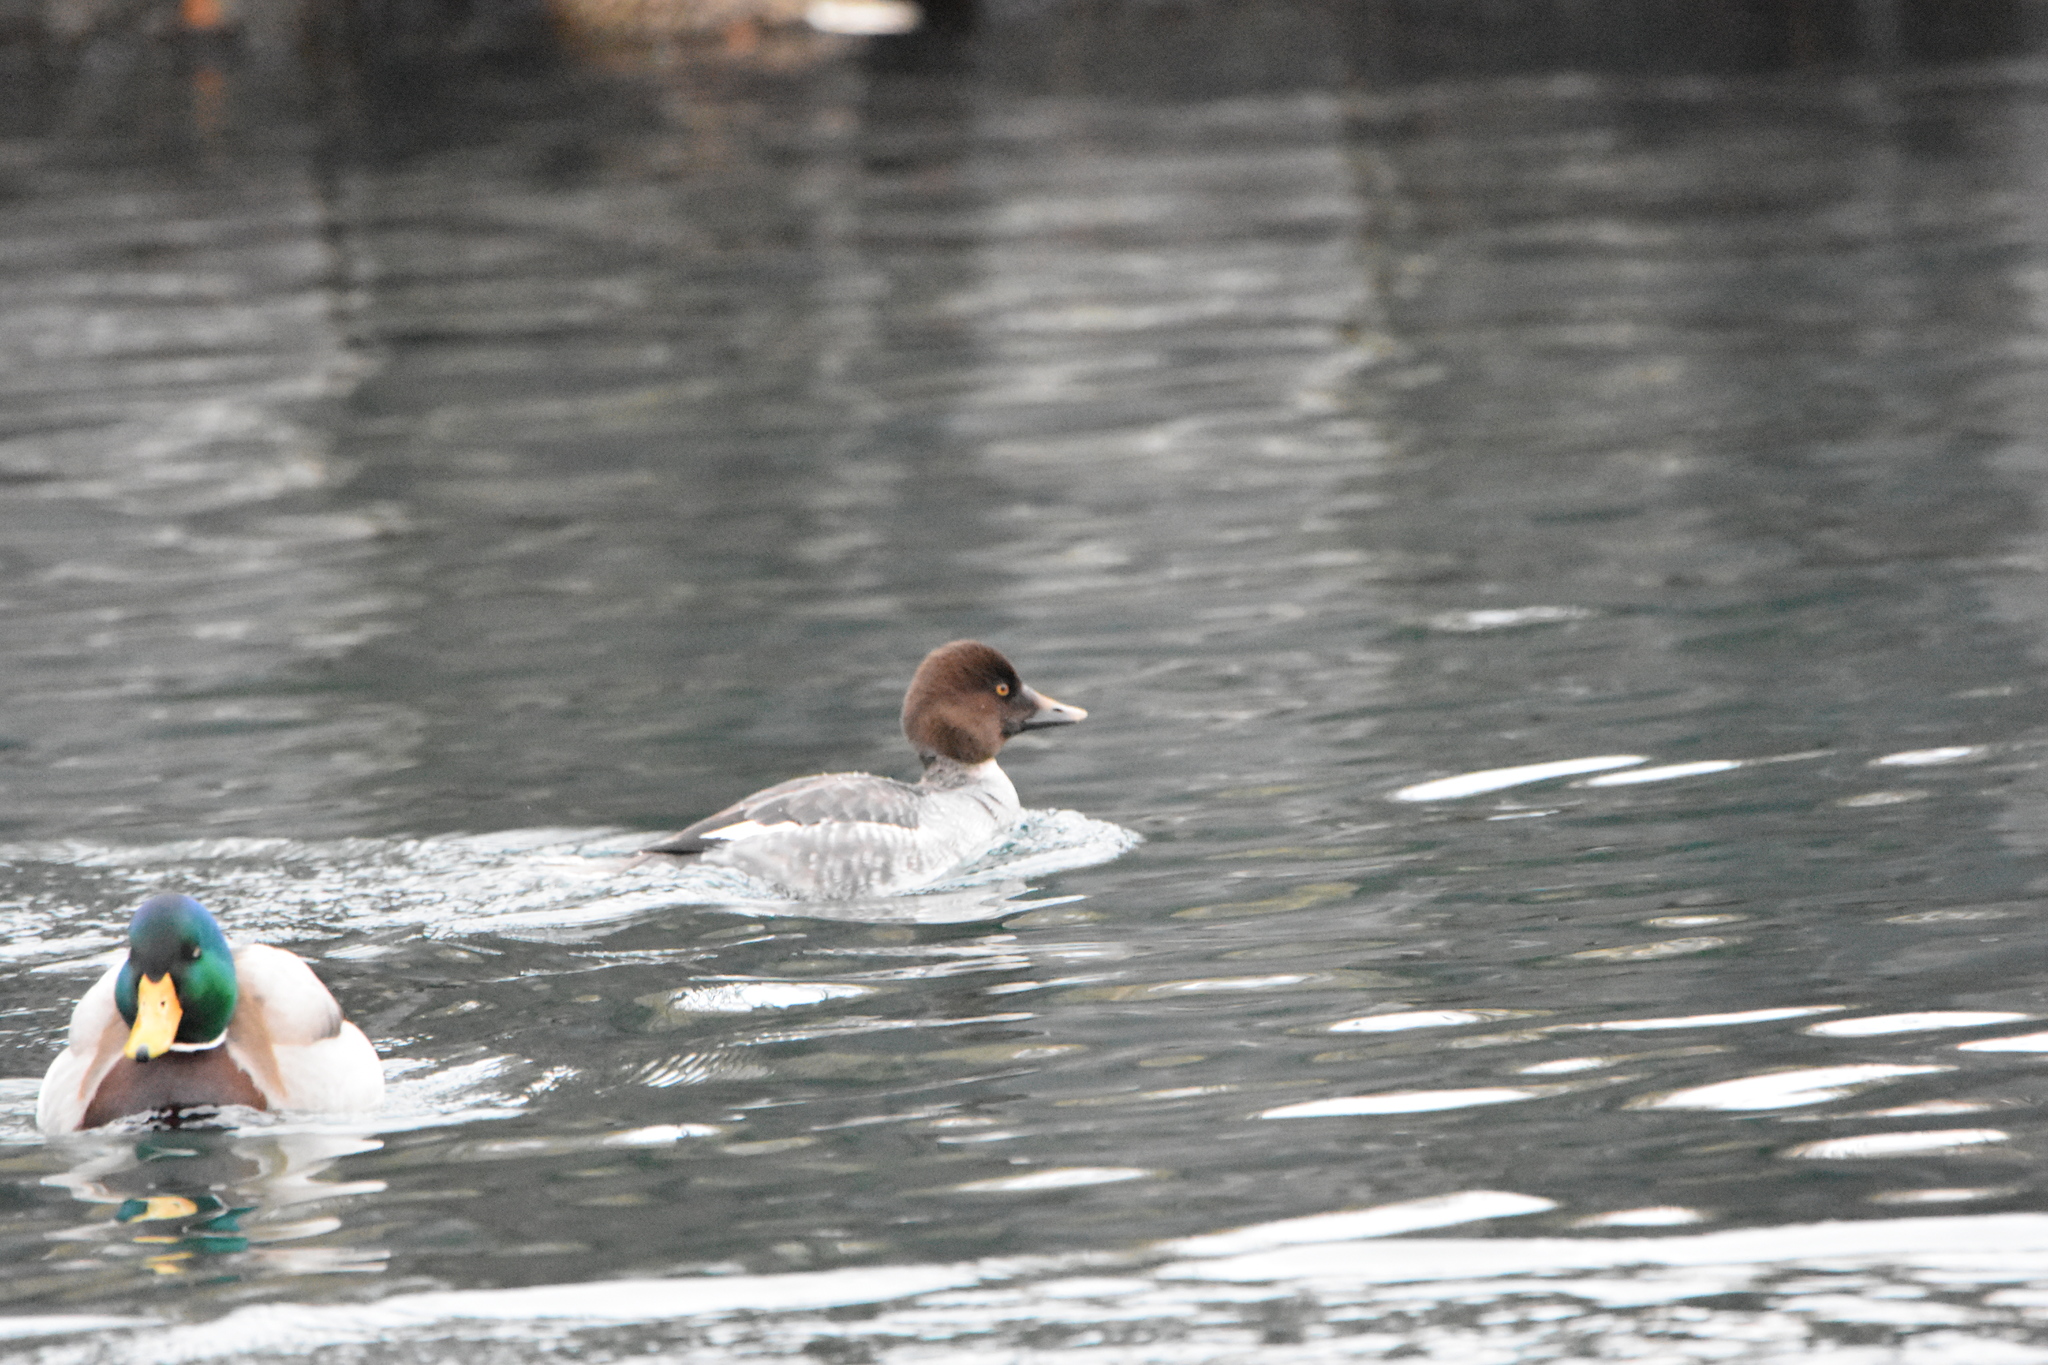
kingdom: Animalia
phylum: Chordata
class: Aves
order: Anseriformes
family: Anatidae
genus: Bucephala
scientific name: Bucephala clangula
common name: Common goldeneye
